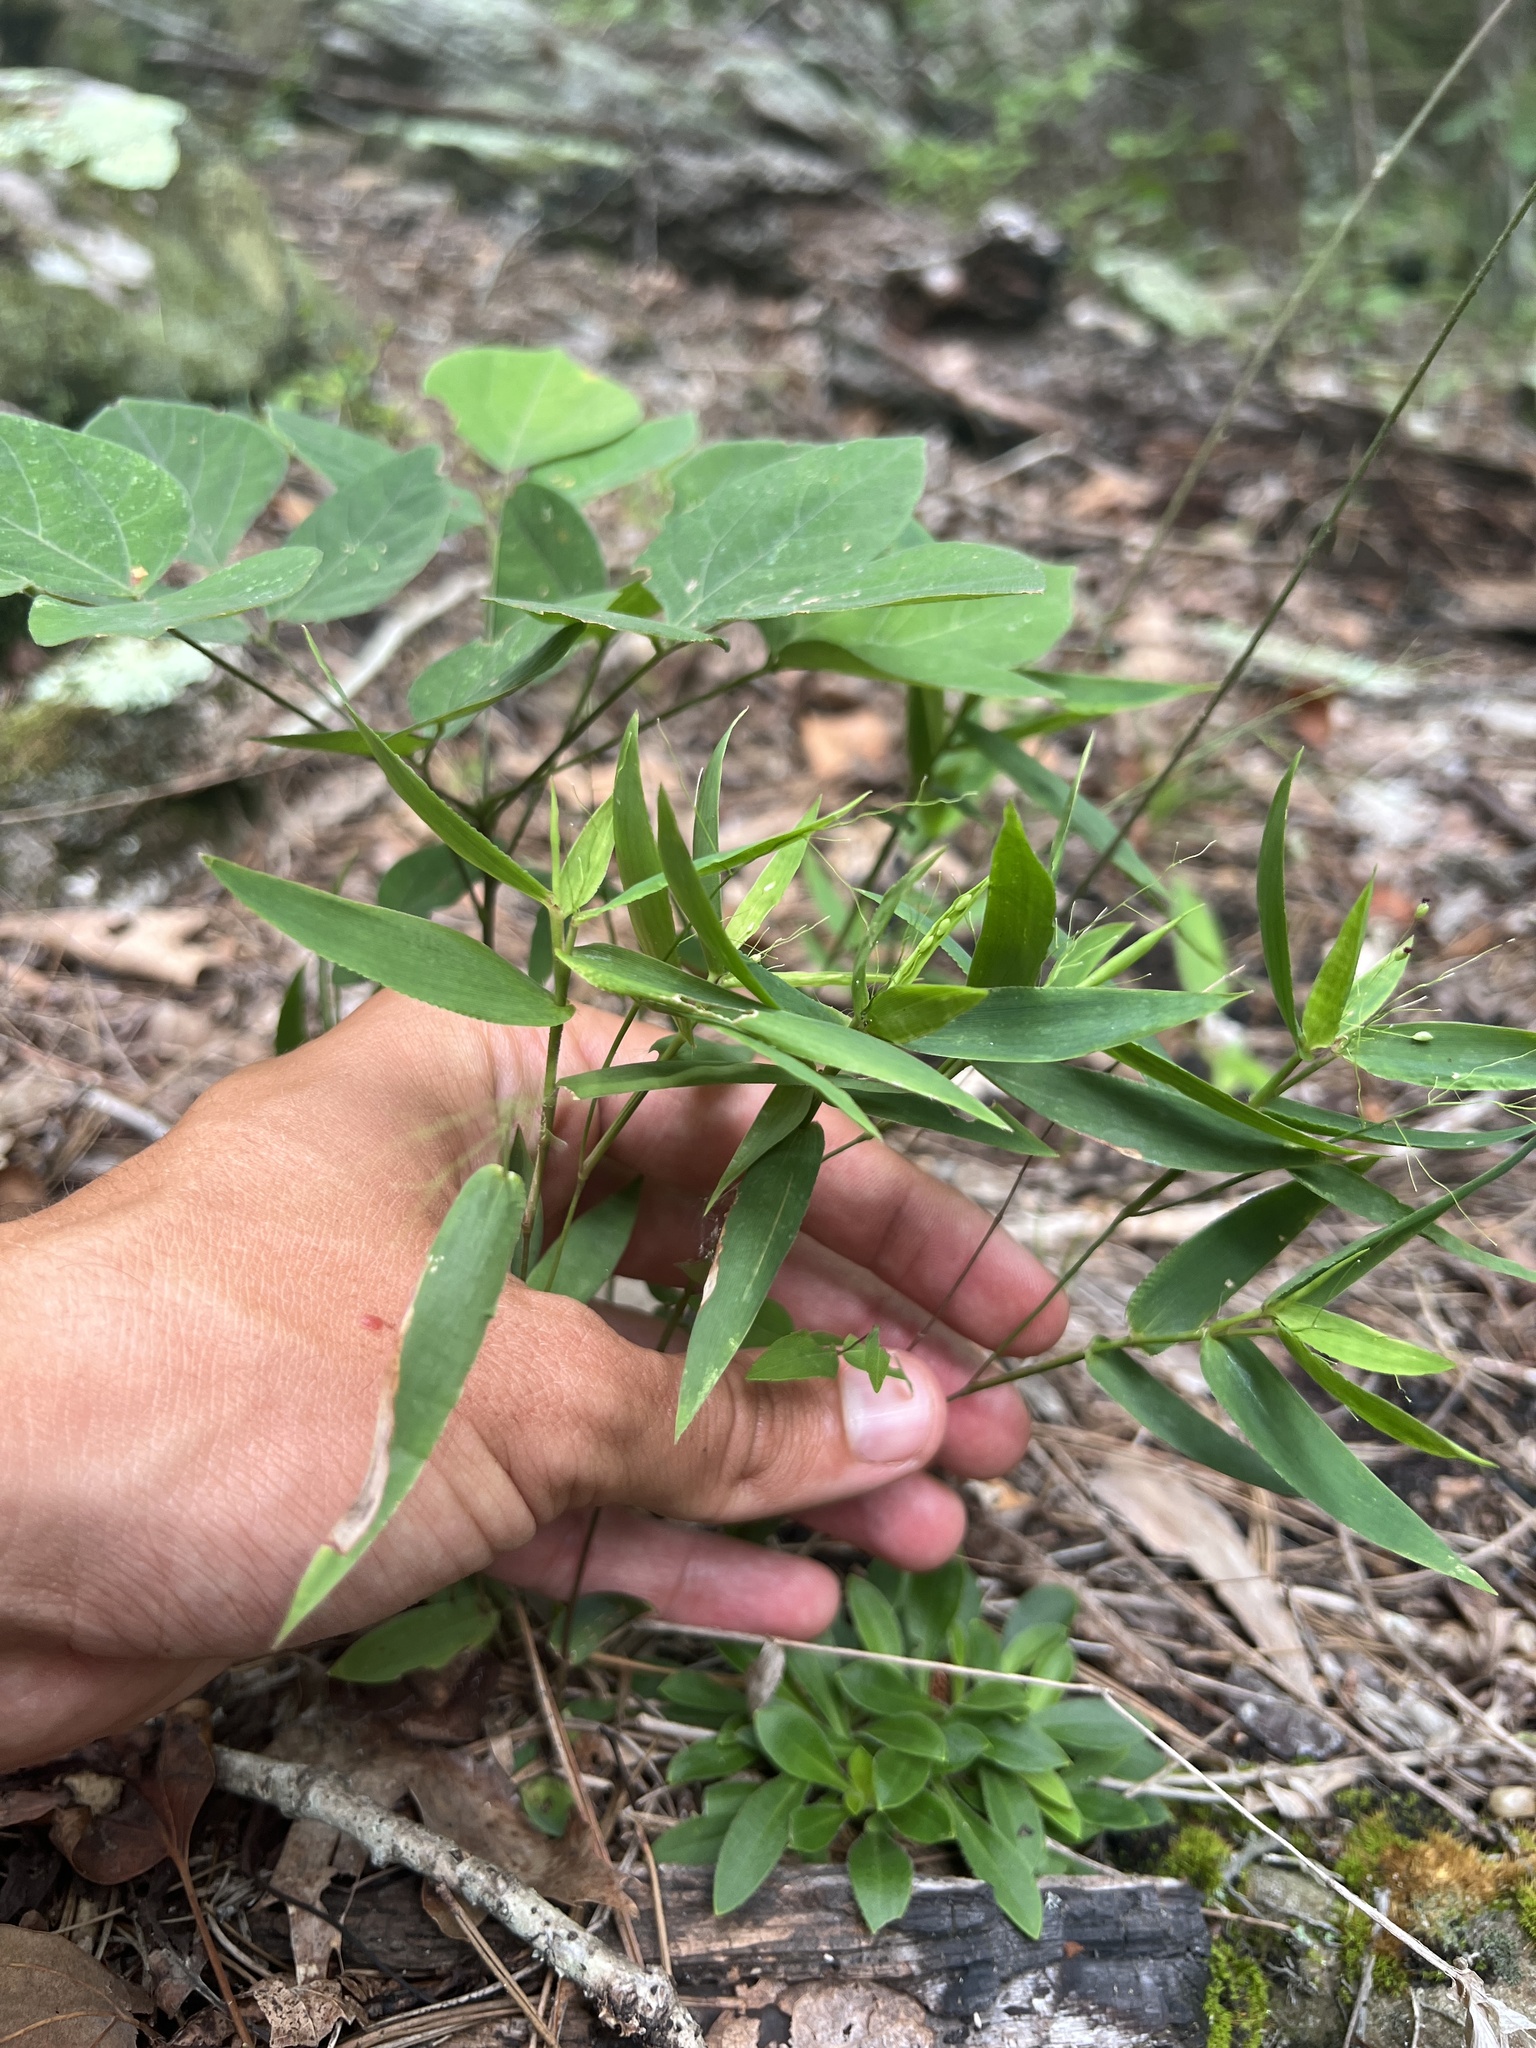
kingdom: Plantae
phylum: Tracheophyta
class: Liliopsida
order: Poales
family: Poaceae
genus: Dichanthelium
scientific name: Dichanthelium commutatum
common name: Variable witchgrass
